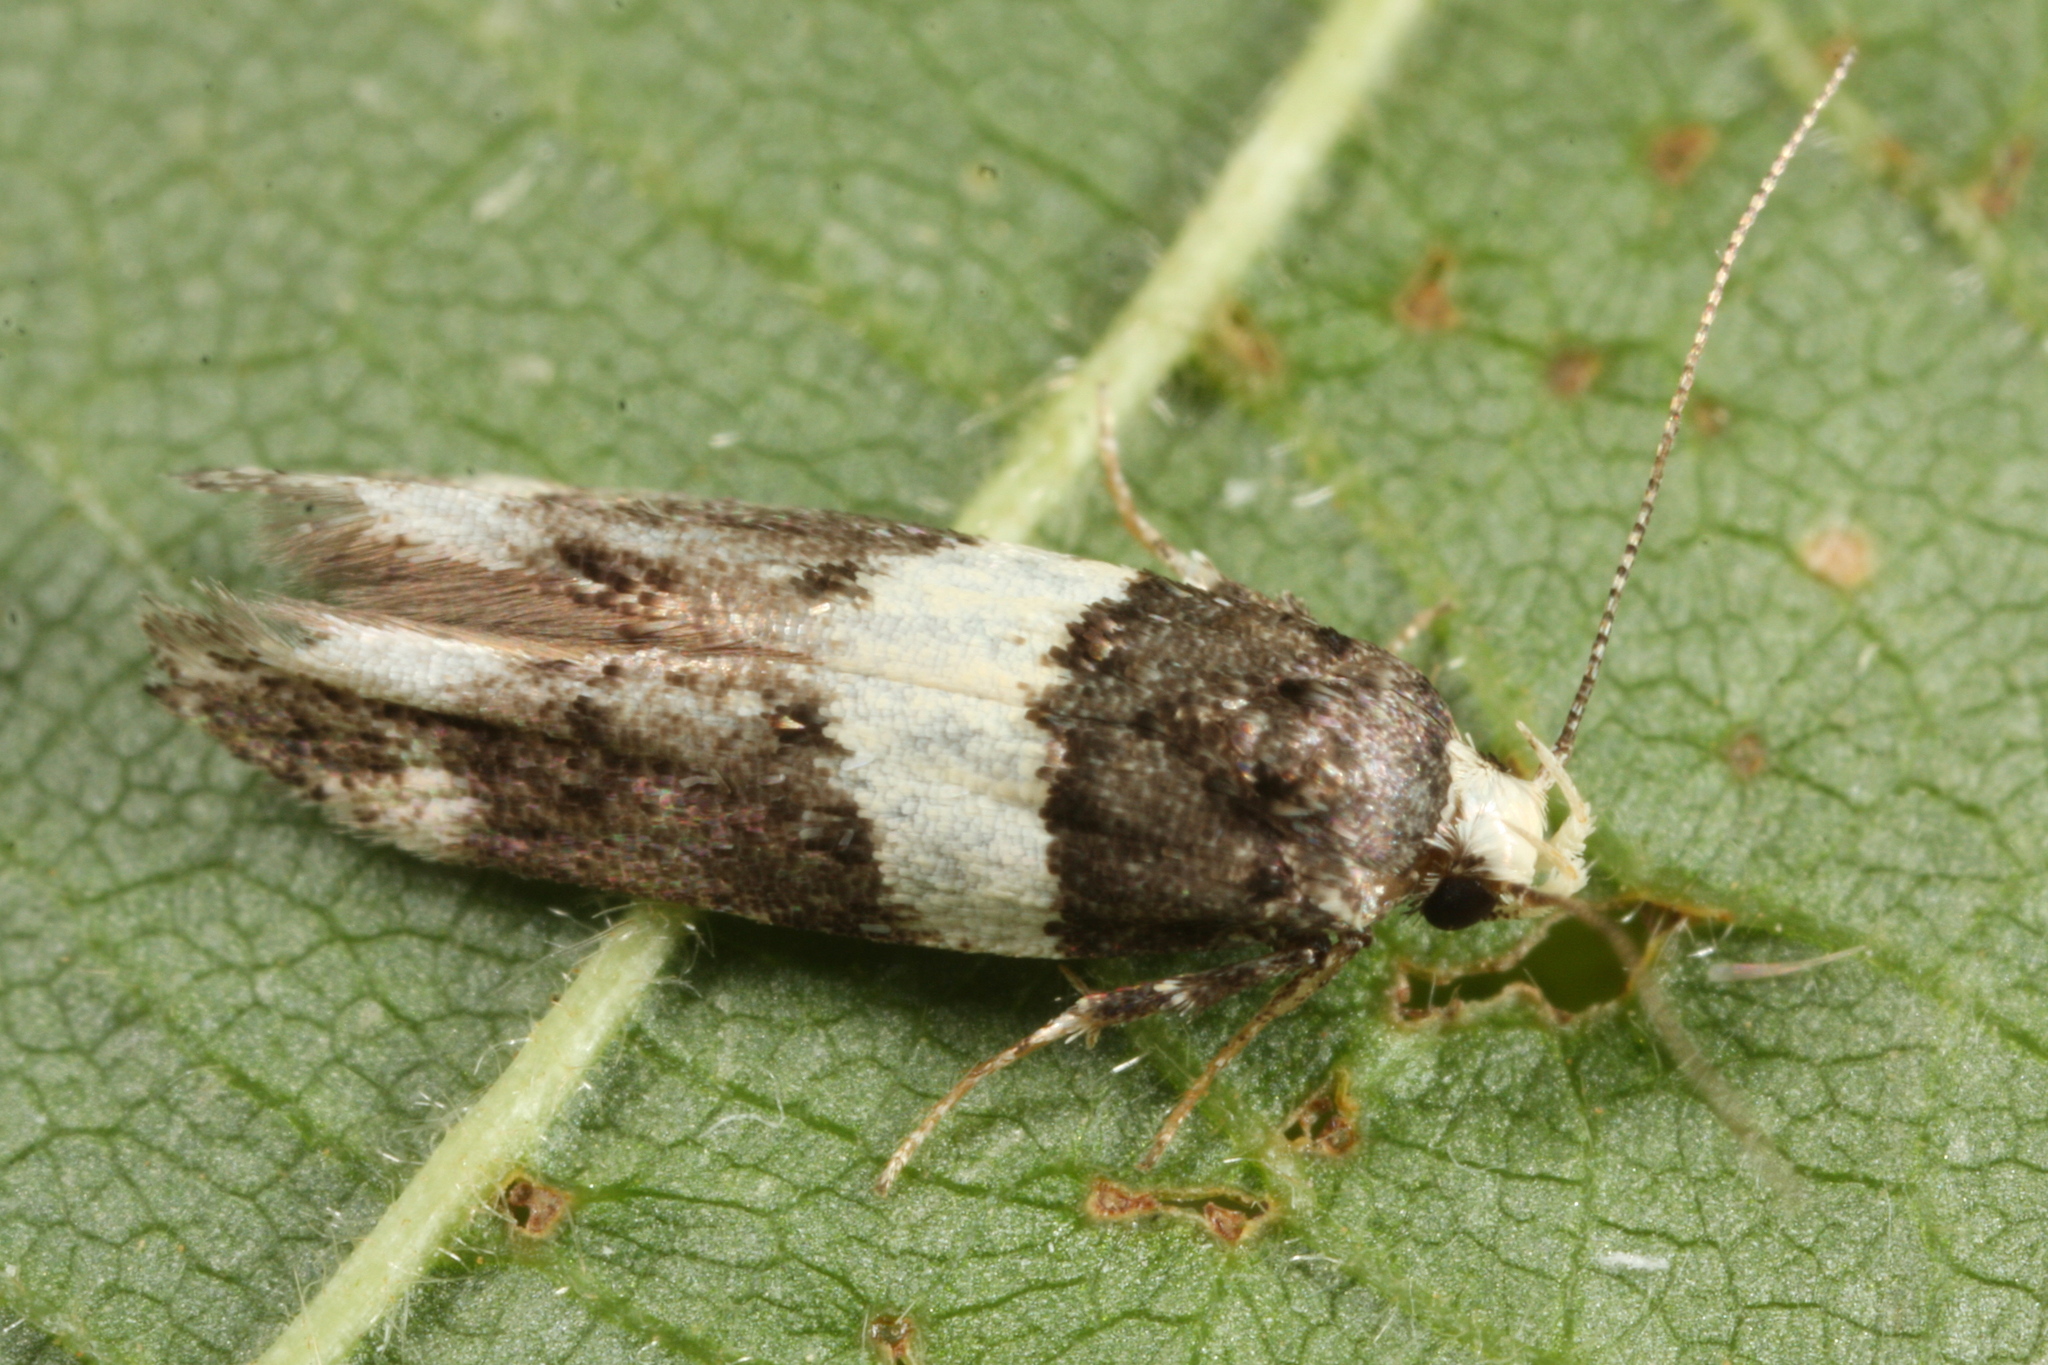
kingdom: Animalia
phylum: Arthropoda
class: Insecta
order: Lepidoptera
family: Gelechiidae
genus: Recurvaria
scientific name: Recurvaria leucatella
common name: White-barred groundling
